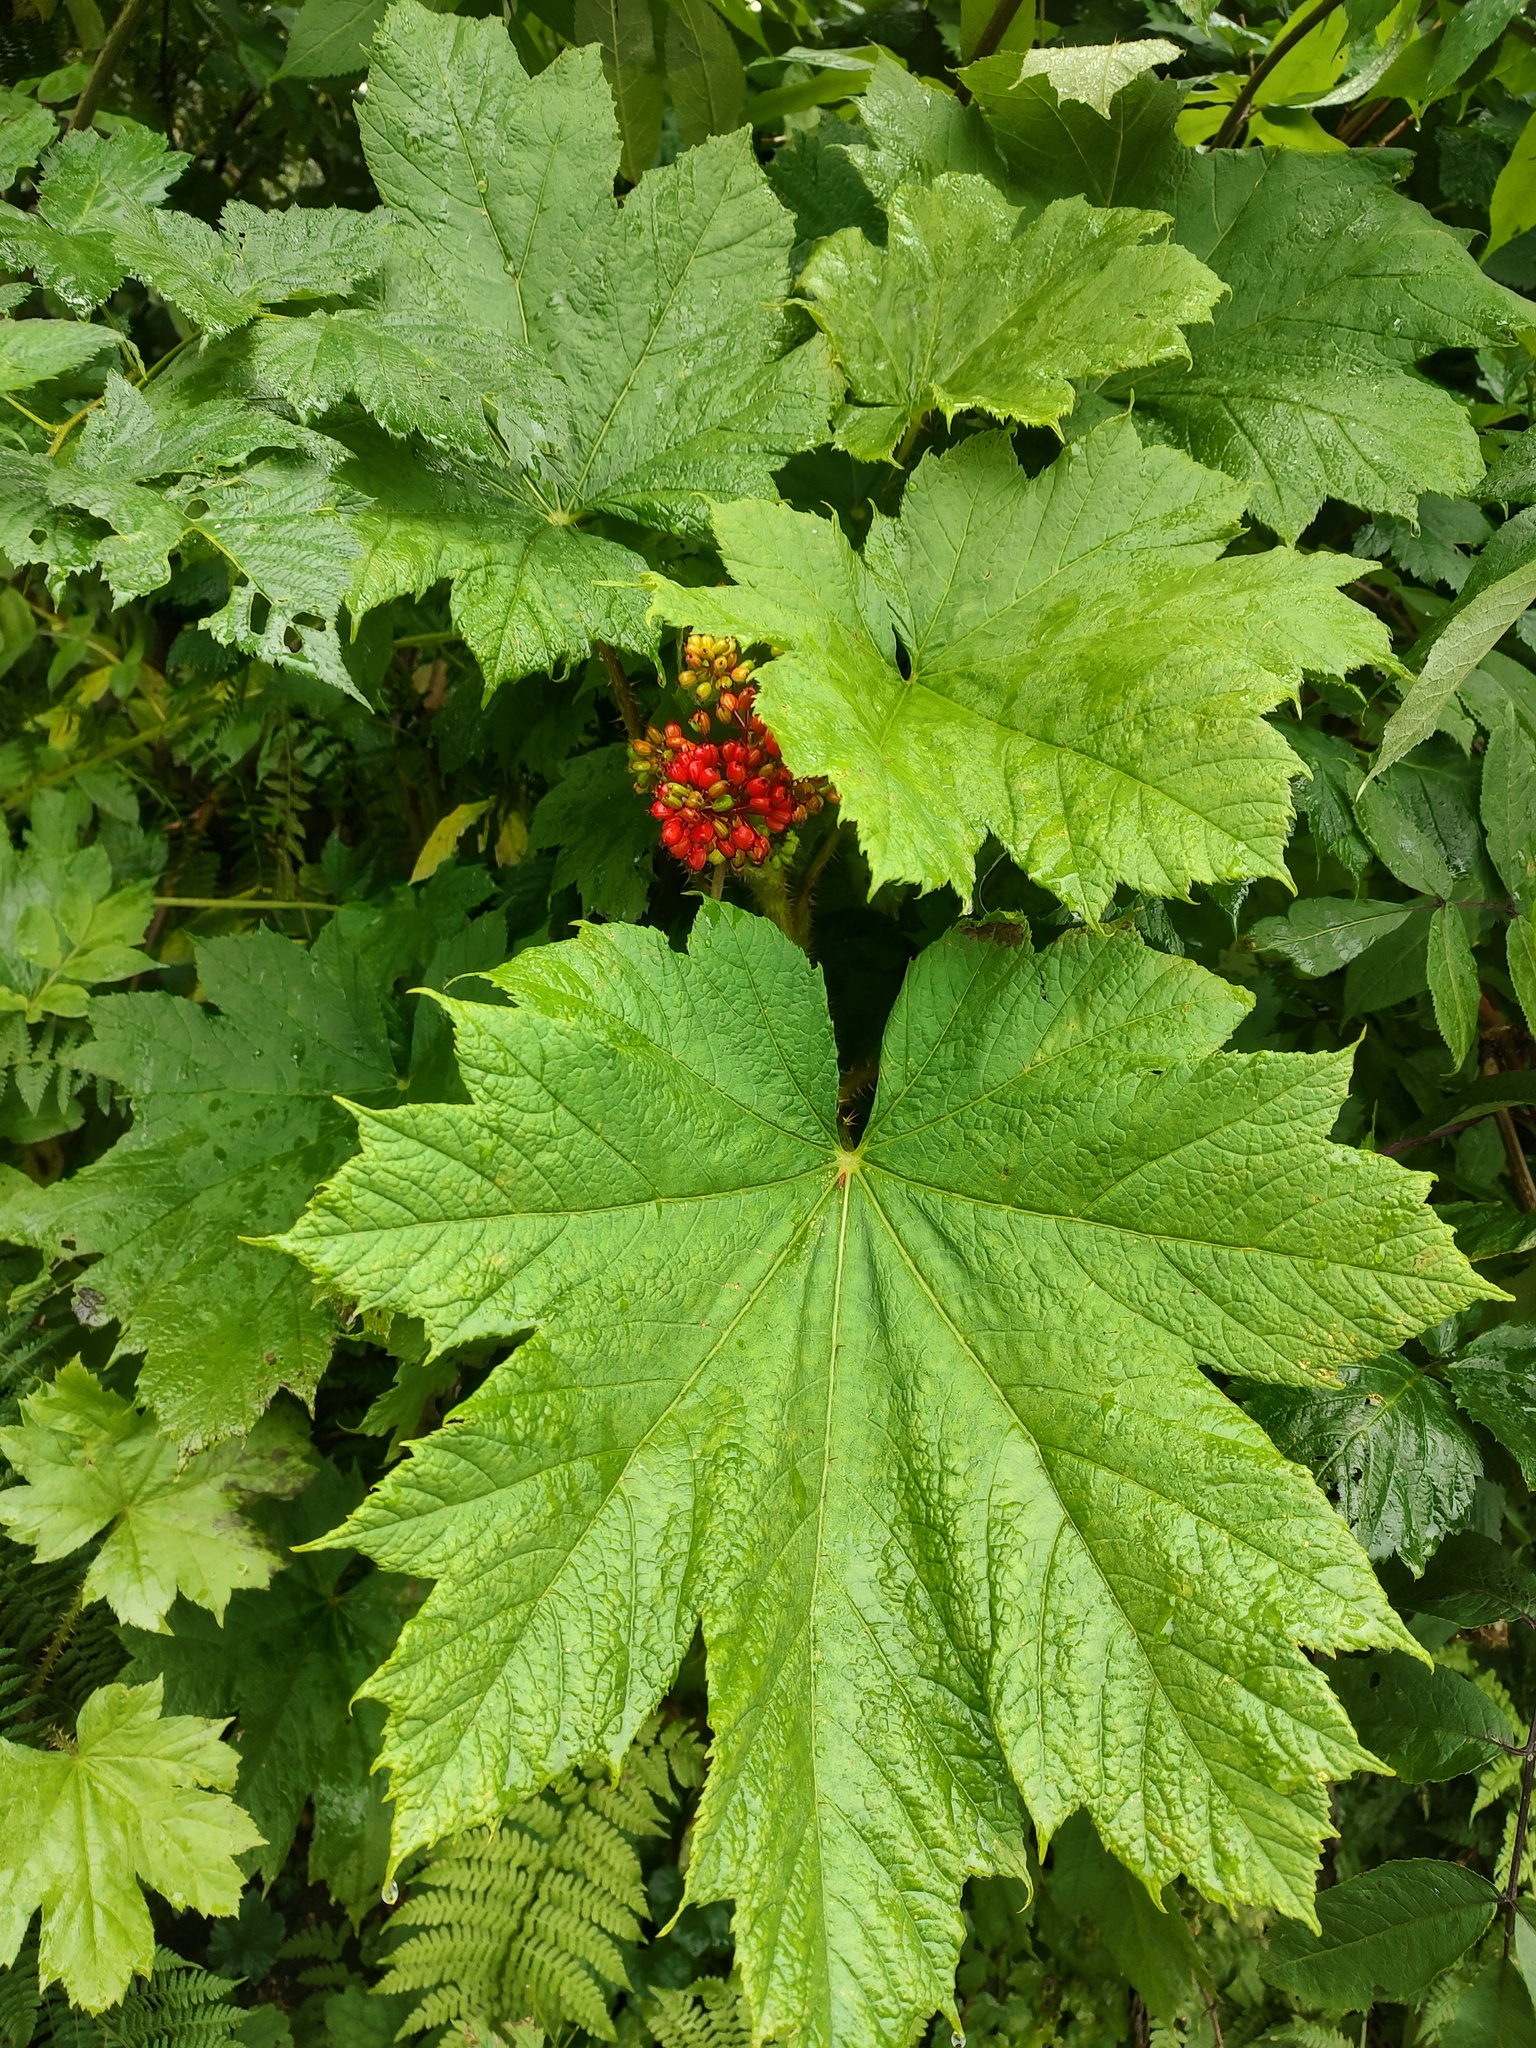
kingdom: Plantae
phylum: Tracheophyta
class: Magnoliopsida
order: Apiales
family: Araliaceae
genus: Oplopanax
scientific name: Oplopanax horridus
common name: Devil's walking-stick
